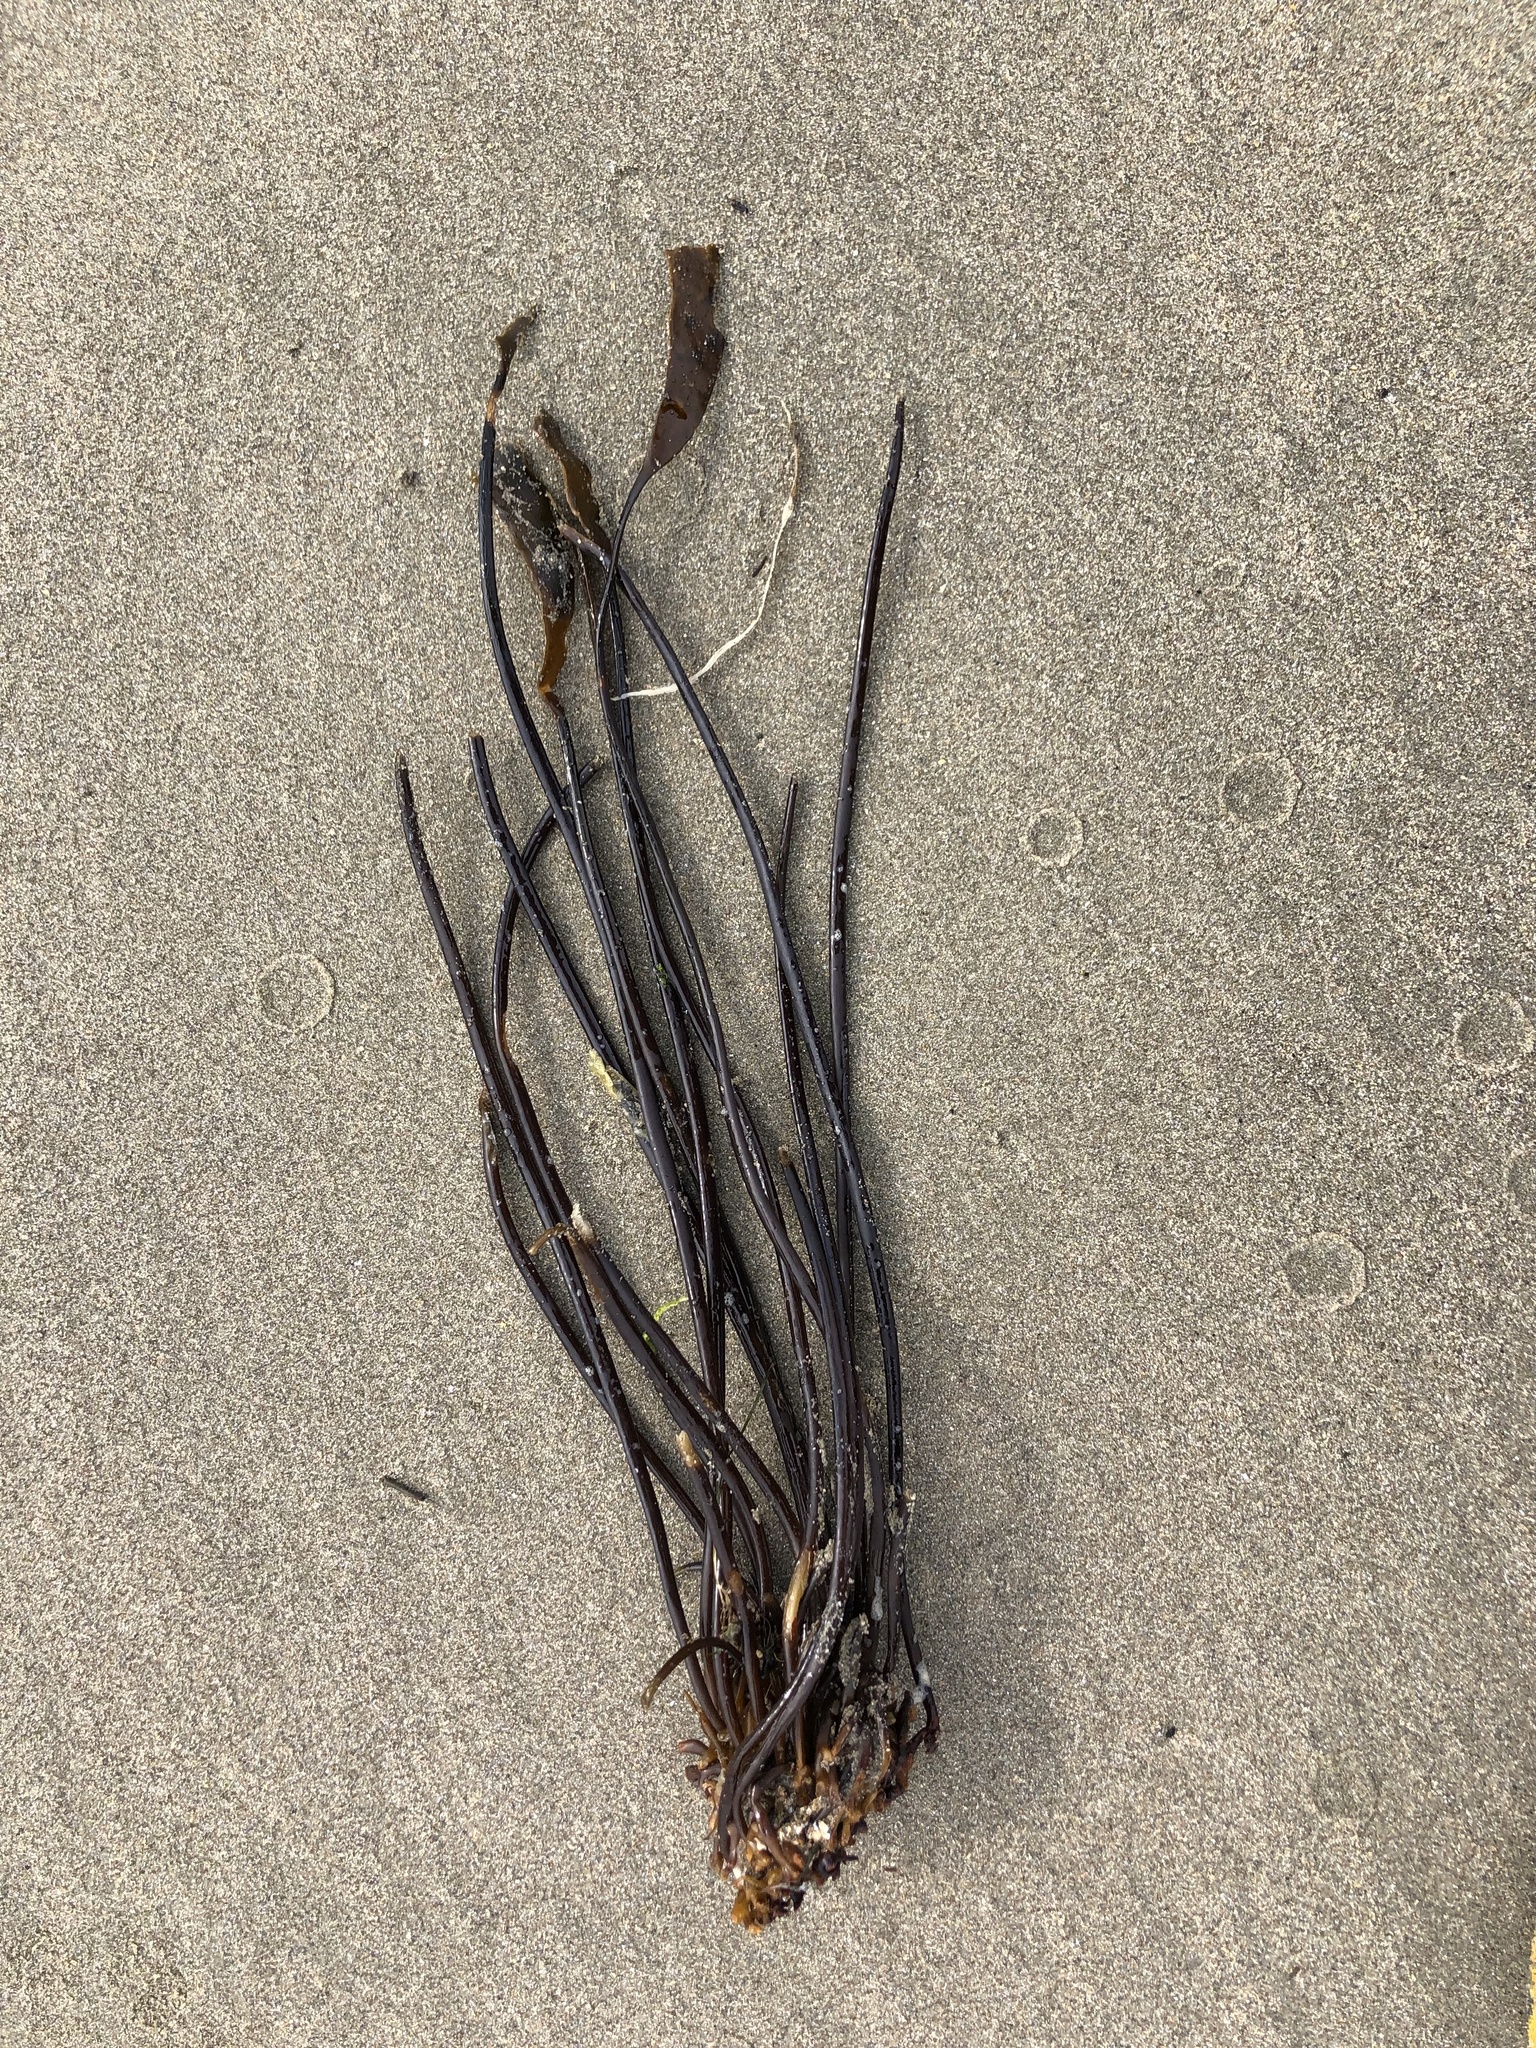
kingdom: Chromista
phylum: Ochrophyta
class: Phaeophyceae
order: Laminariales
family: Laminariaceae
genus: Laminaria
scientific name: Laminaria sinclairii
